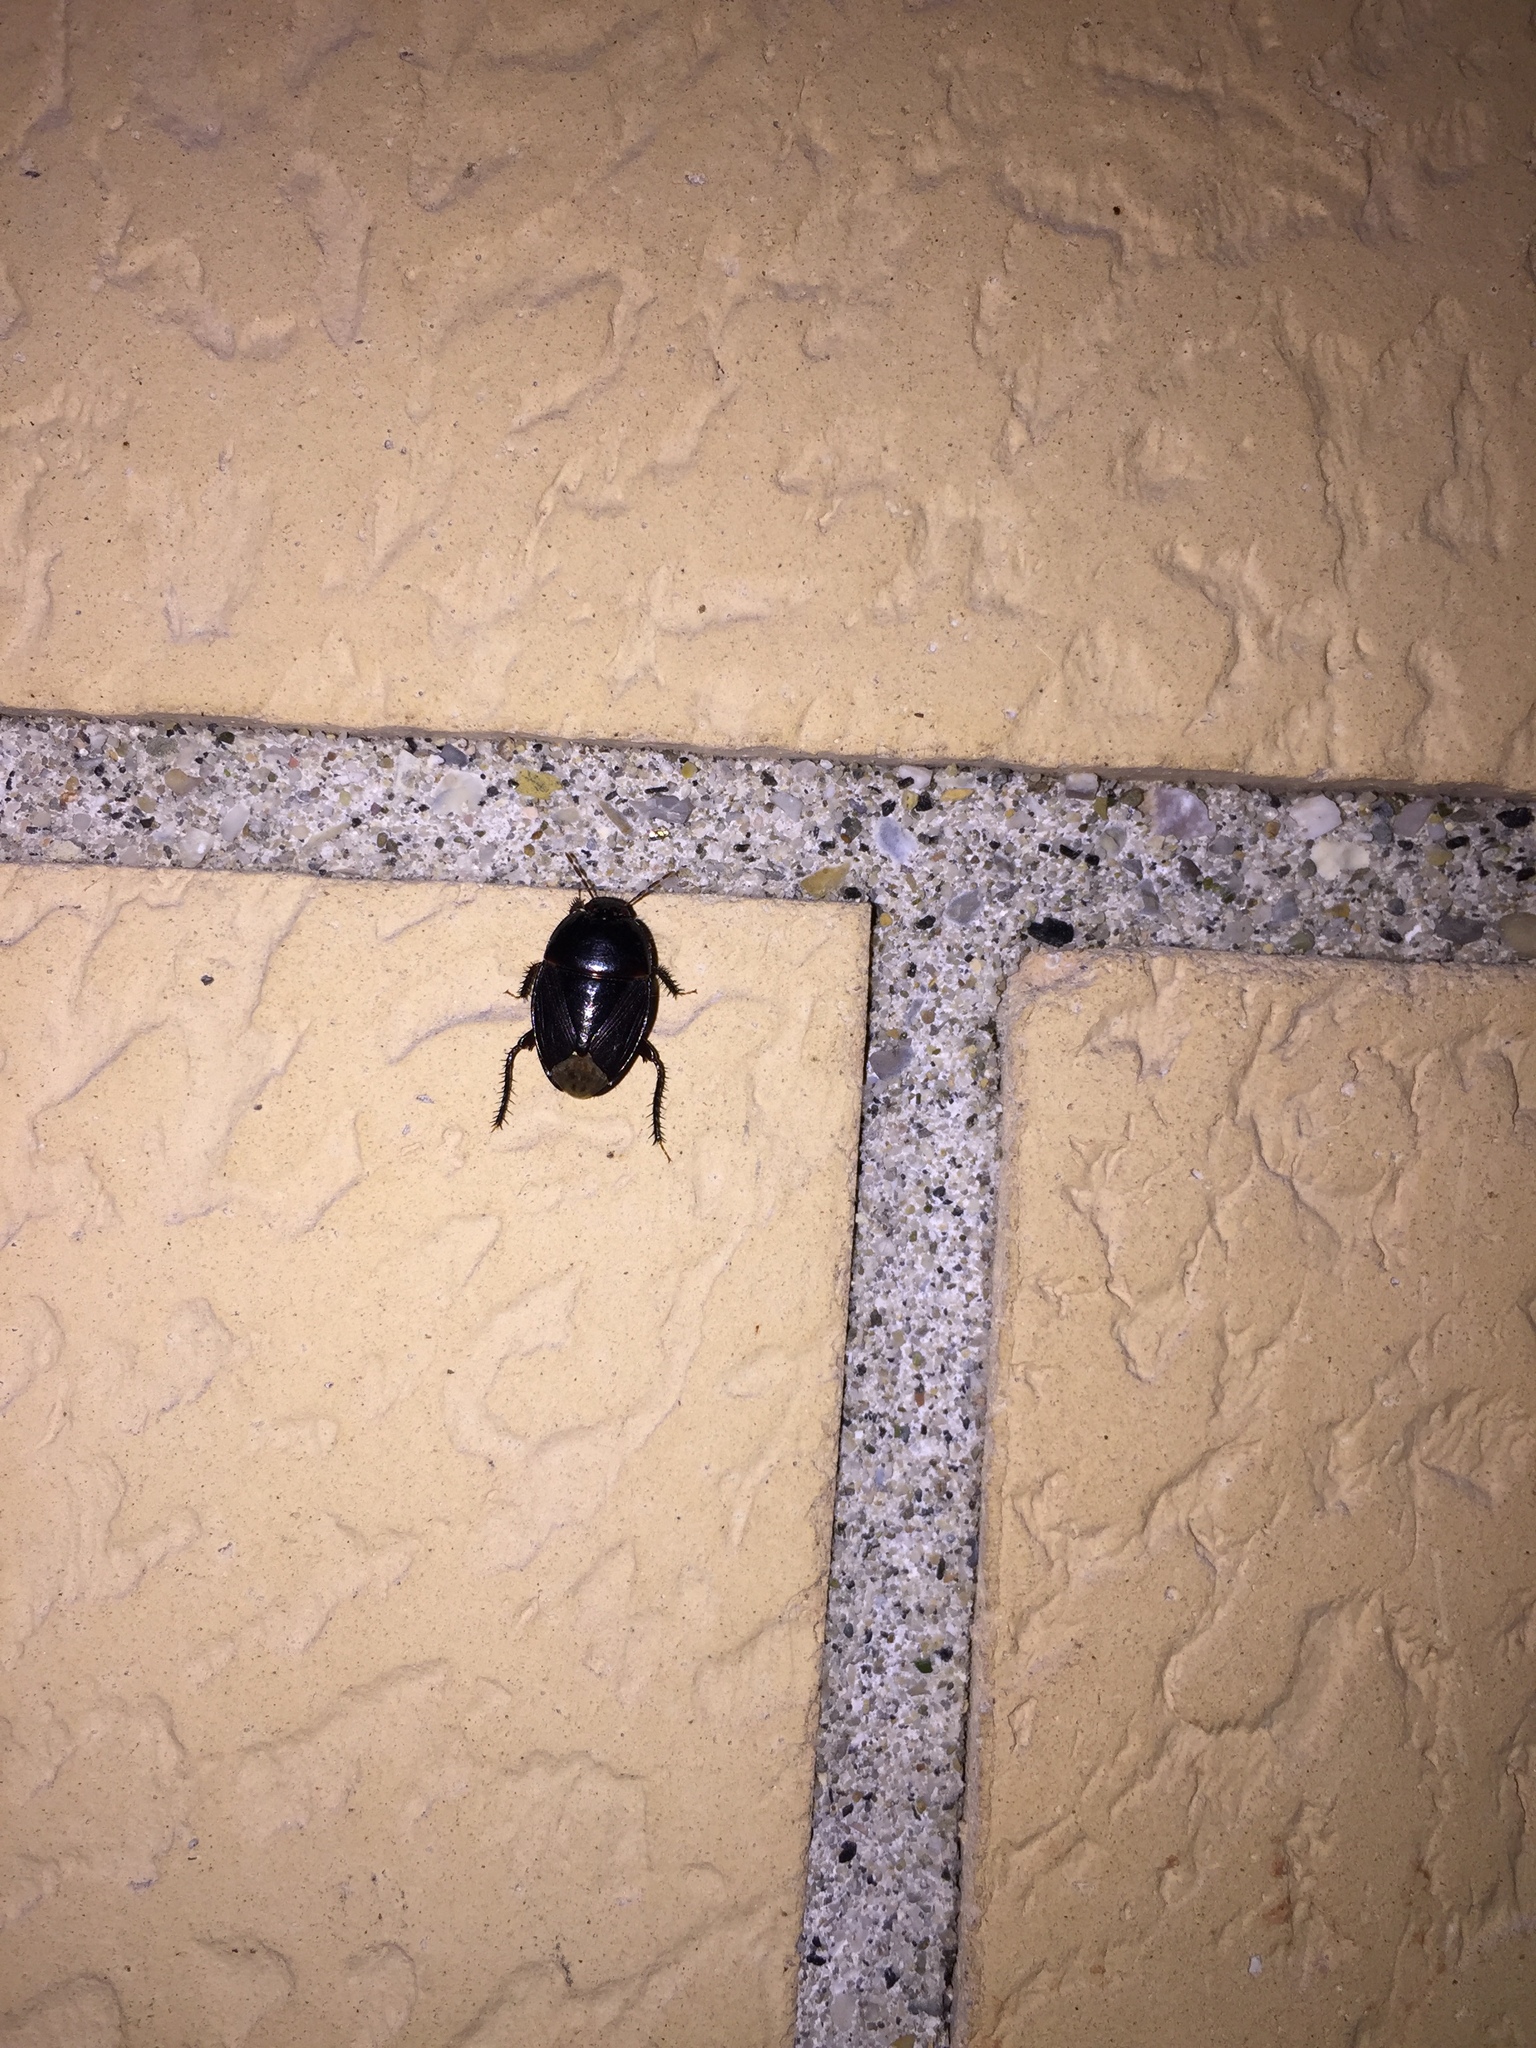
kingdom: Animalia
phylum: Arthropoda
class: Insecta
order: Hemiptera
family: Cydnidae
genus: Macroscytus
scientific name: Macroscytus brunneus
